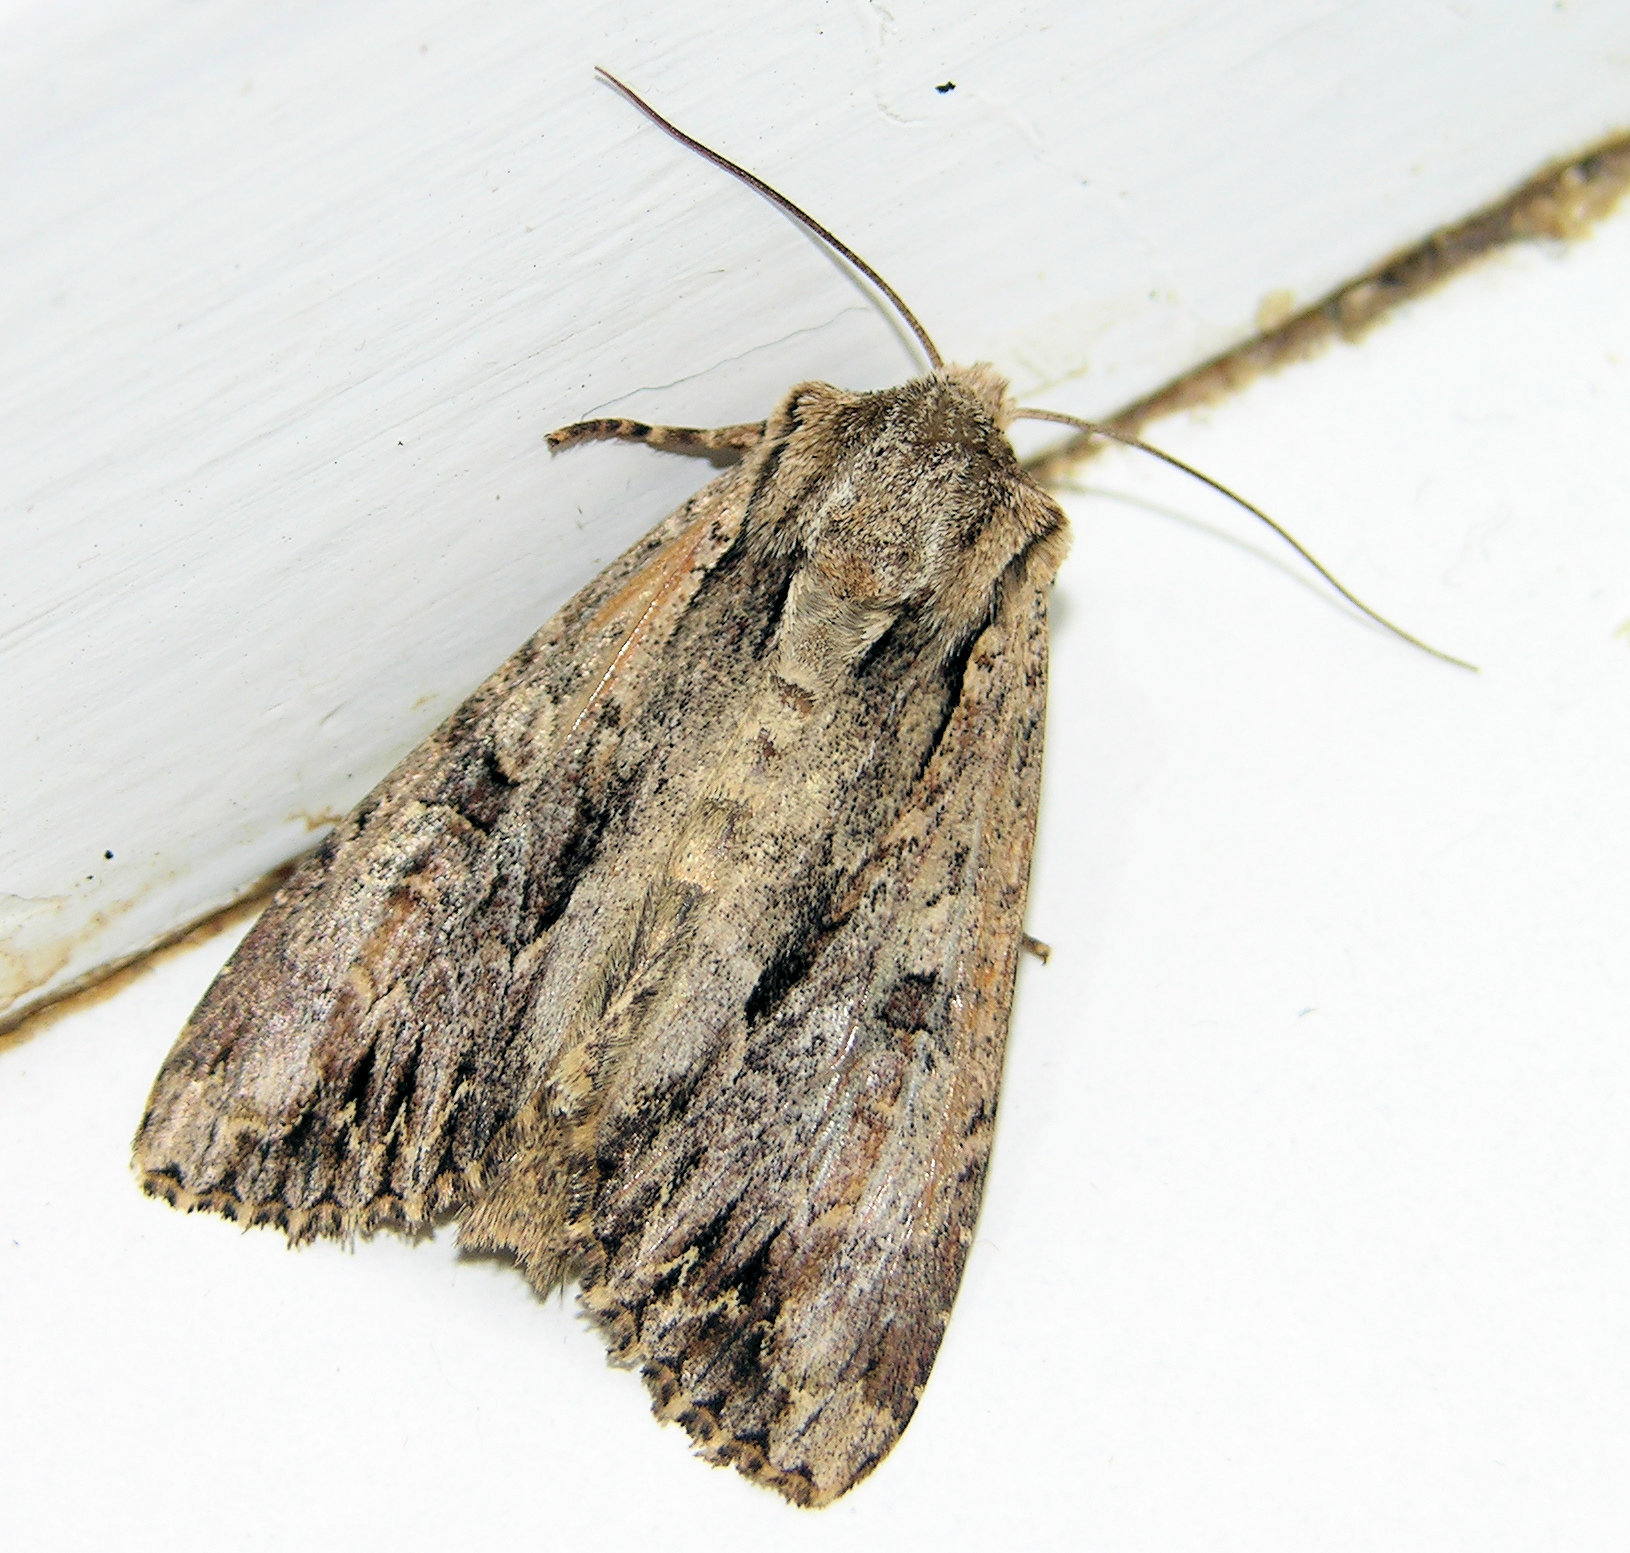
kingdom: Animalia
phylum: Arthropoda
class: Insecta
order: Lepidoptera
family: Noctuidae
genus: Apamea
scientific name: Apamea monoglypha
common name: Dark arches
